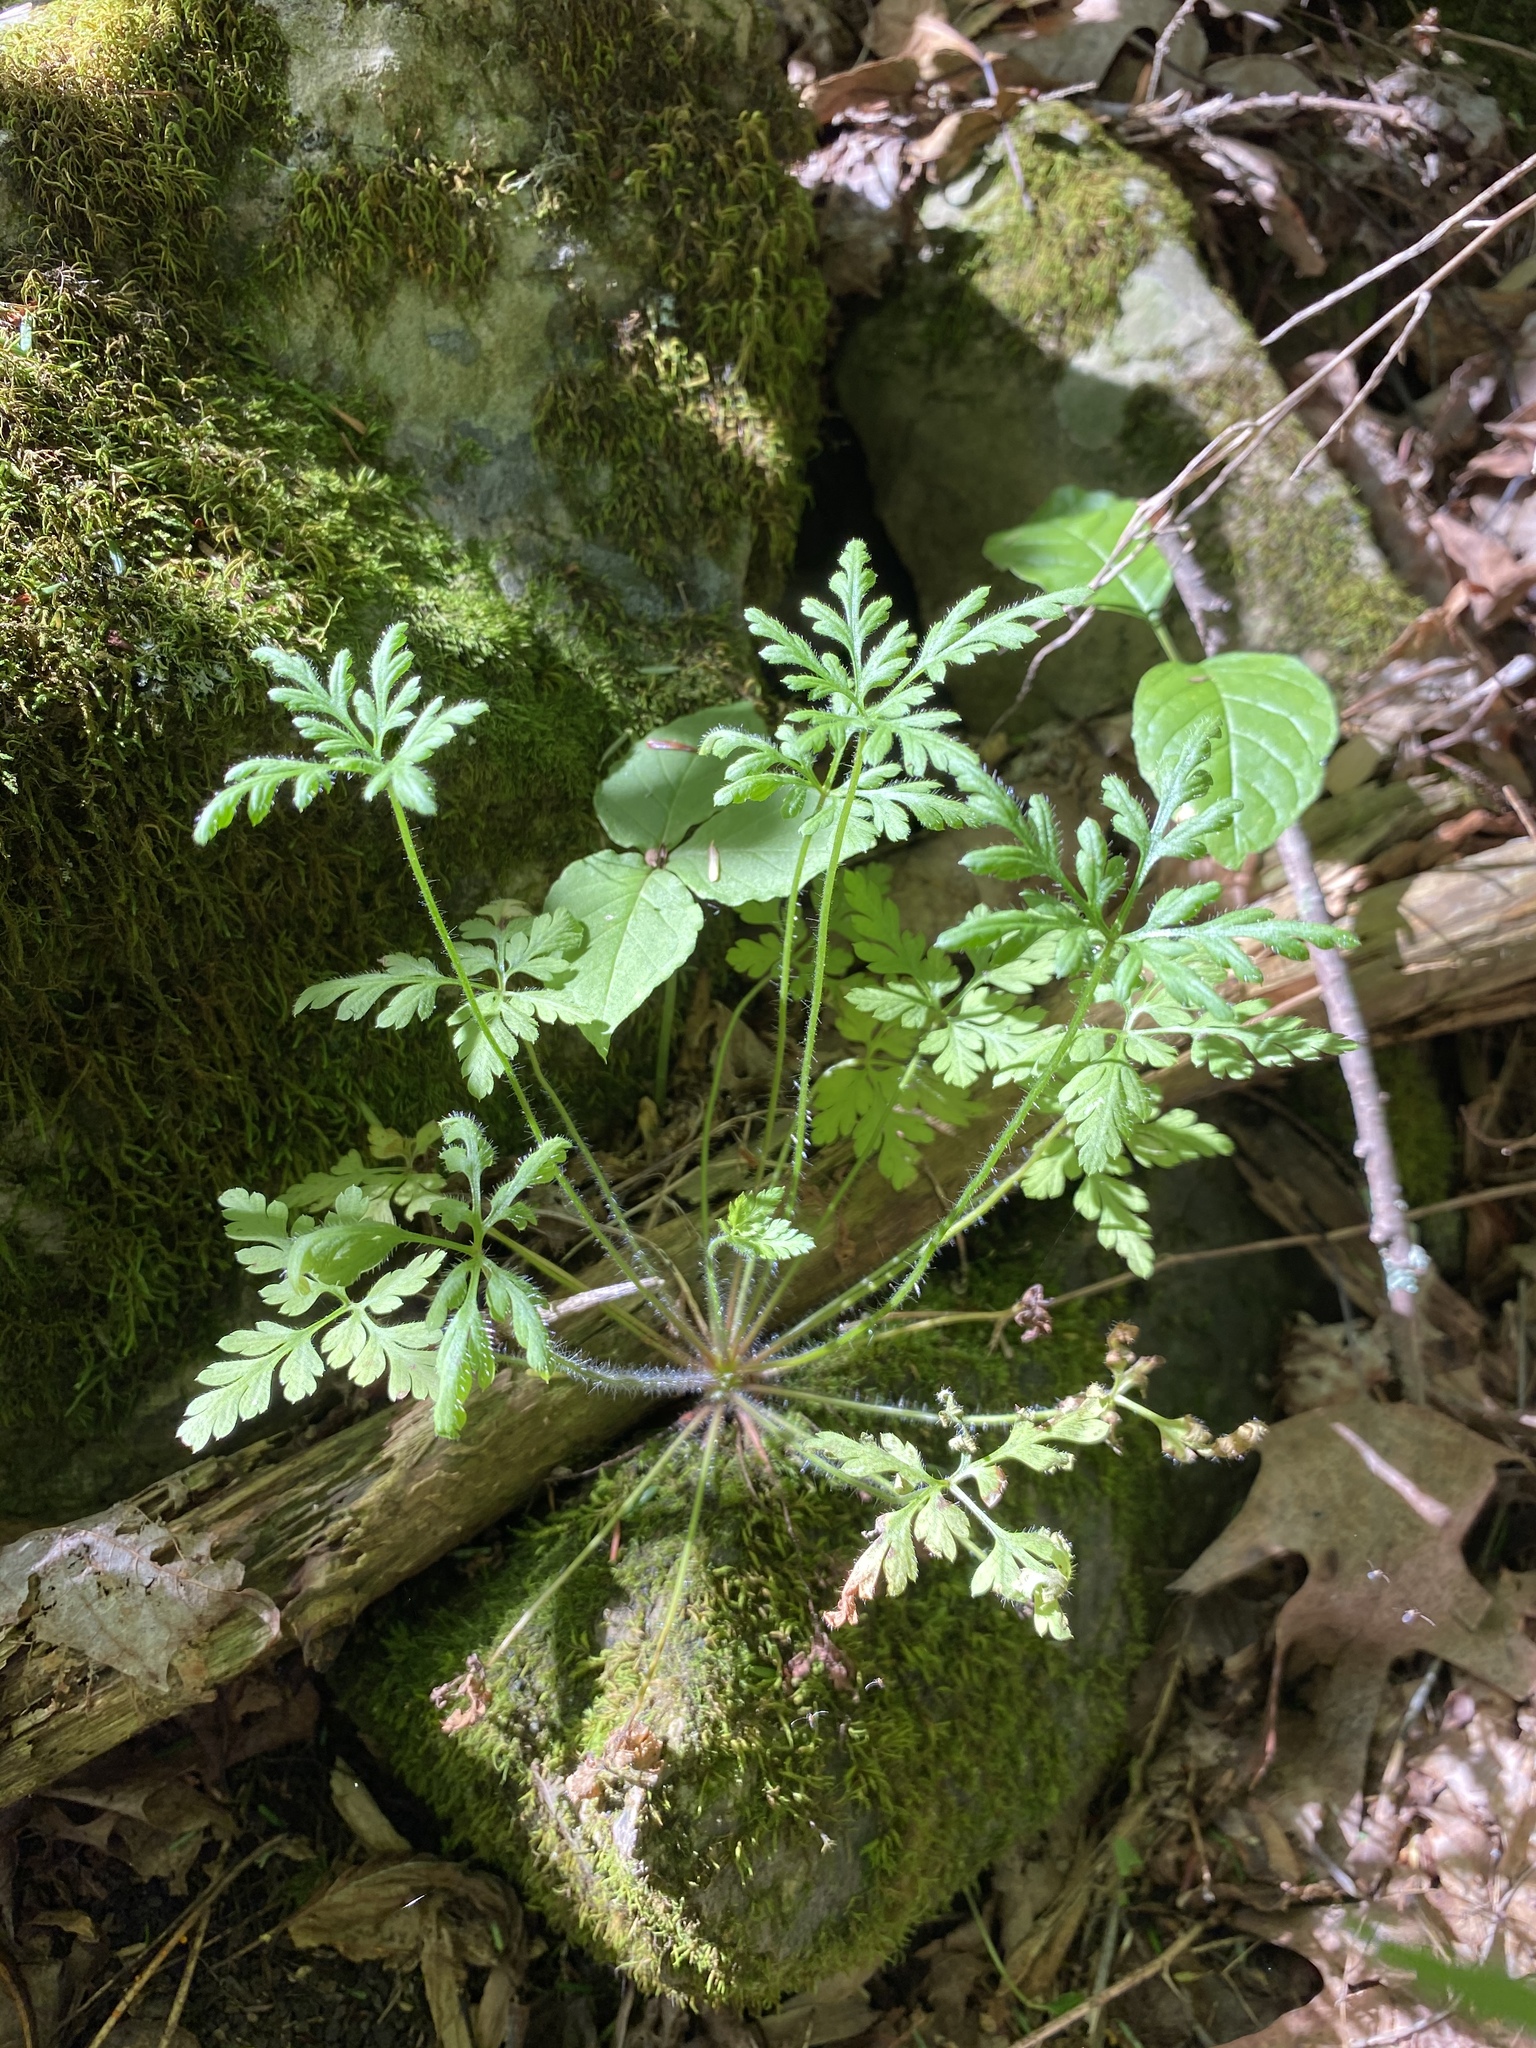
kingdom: Plantae
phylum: Tracheophyta
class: Magnoliopsida
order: Geraniales
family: Geraniaceae
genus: Geranium
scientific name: Geranium robertianum
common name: Herb-robert
